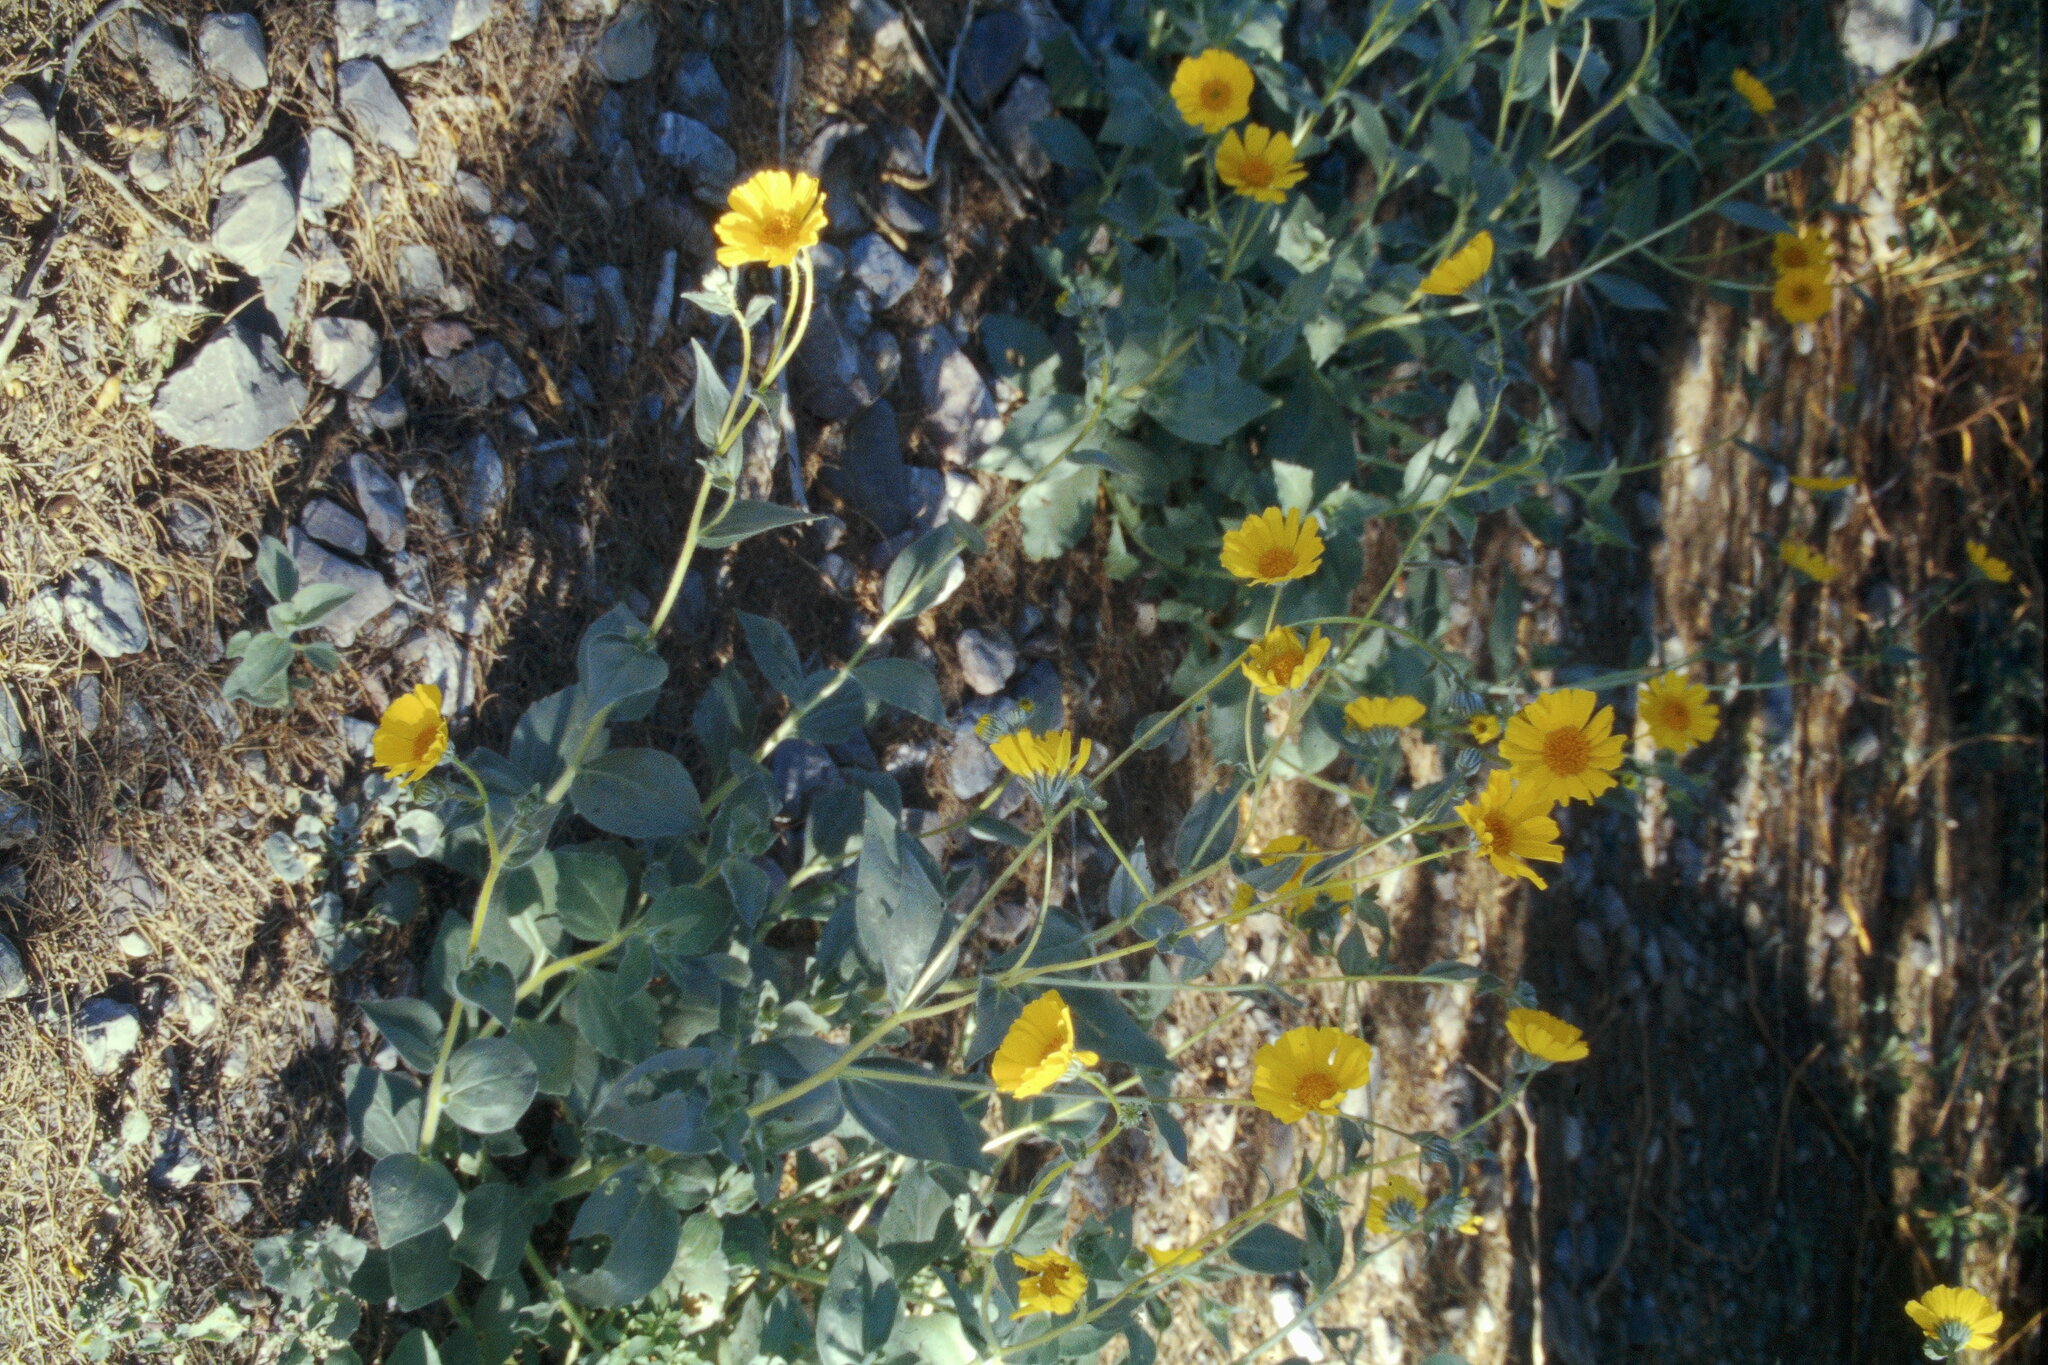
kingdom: Plantae
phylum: Tracheophyta
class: Magnoliopsida
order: Asterales
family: Asteraceae
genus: Geraea
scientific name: Geraea canescens
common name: Desert-gold
